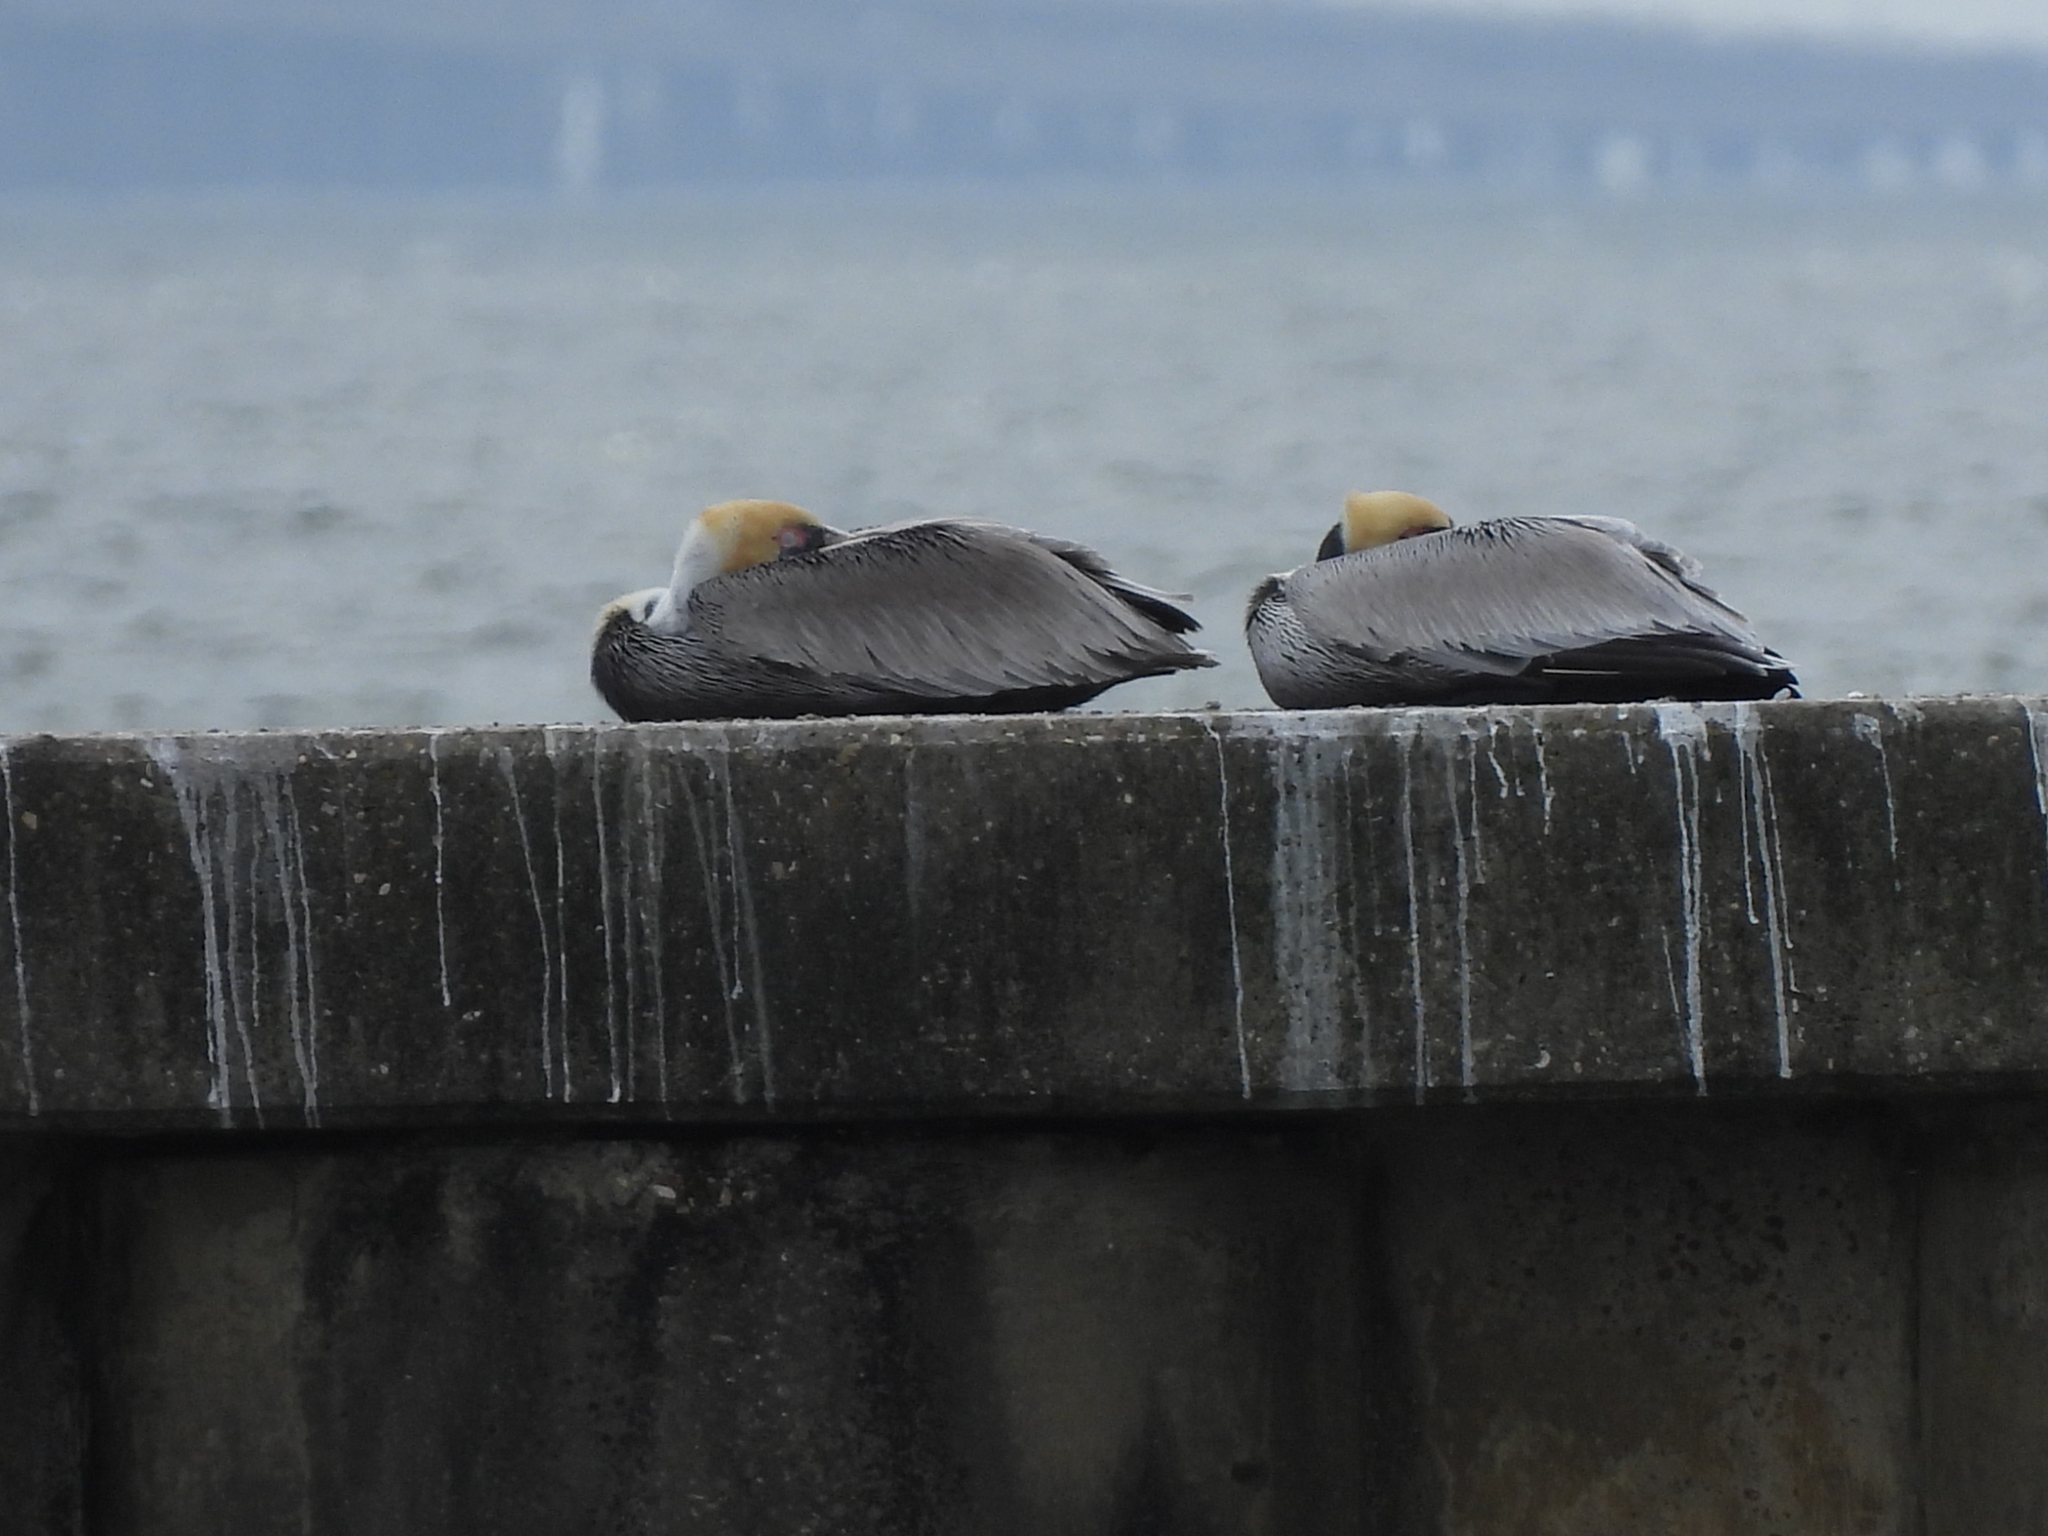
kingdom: Animalia
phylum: Chordata
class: Aves
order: Pelecaniformes
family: Pelecanidae
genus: Pelecanus
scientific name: Pelecanus occidentalis
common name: Brown pelican
